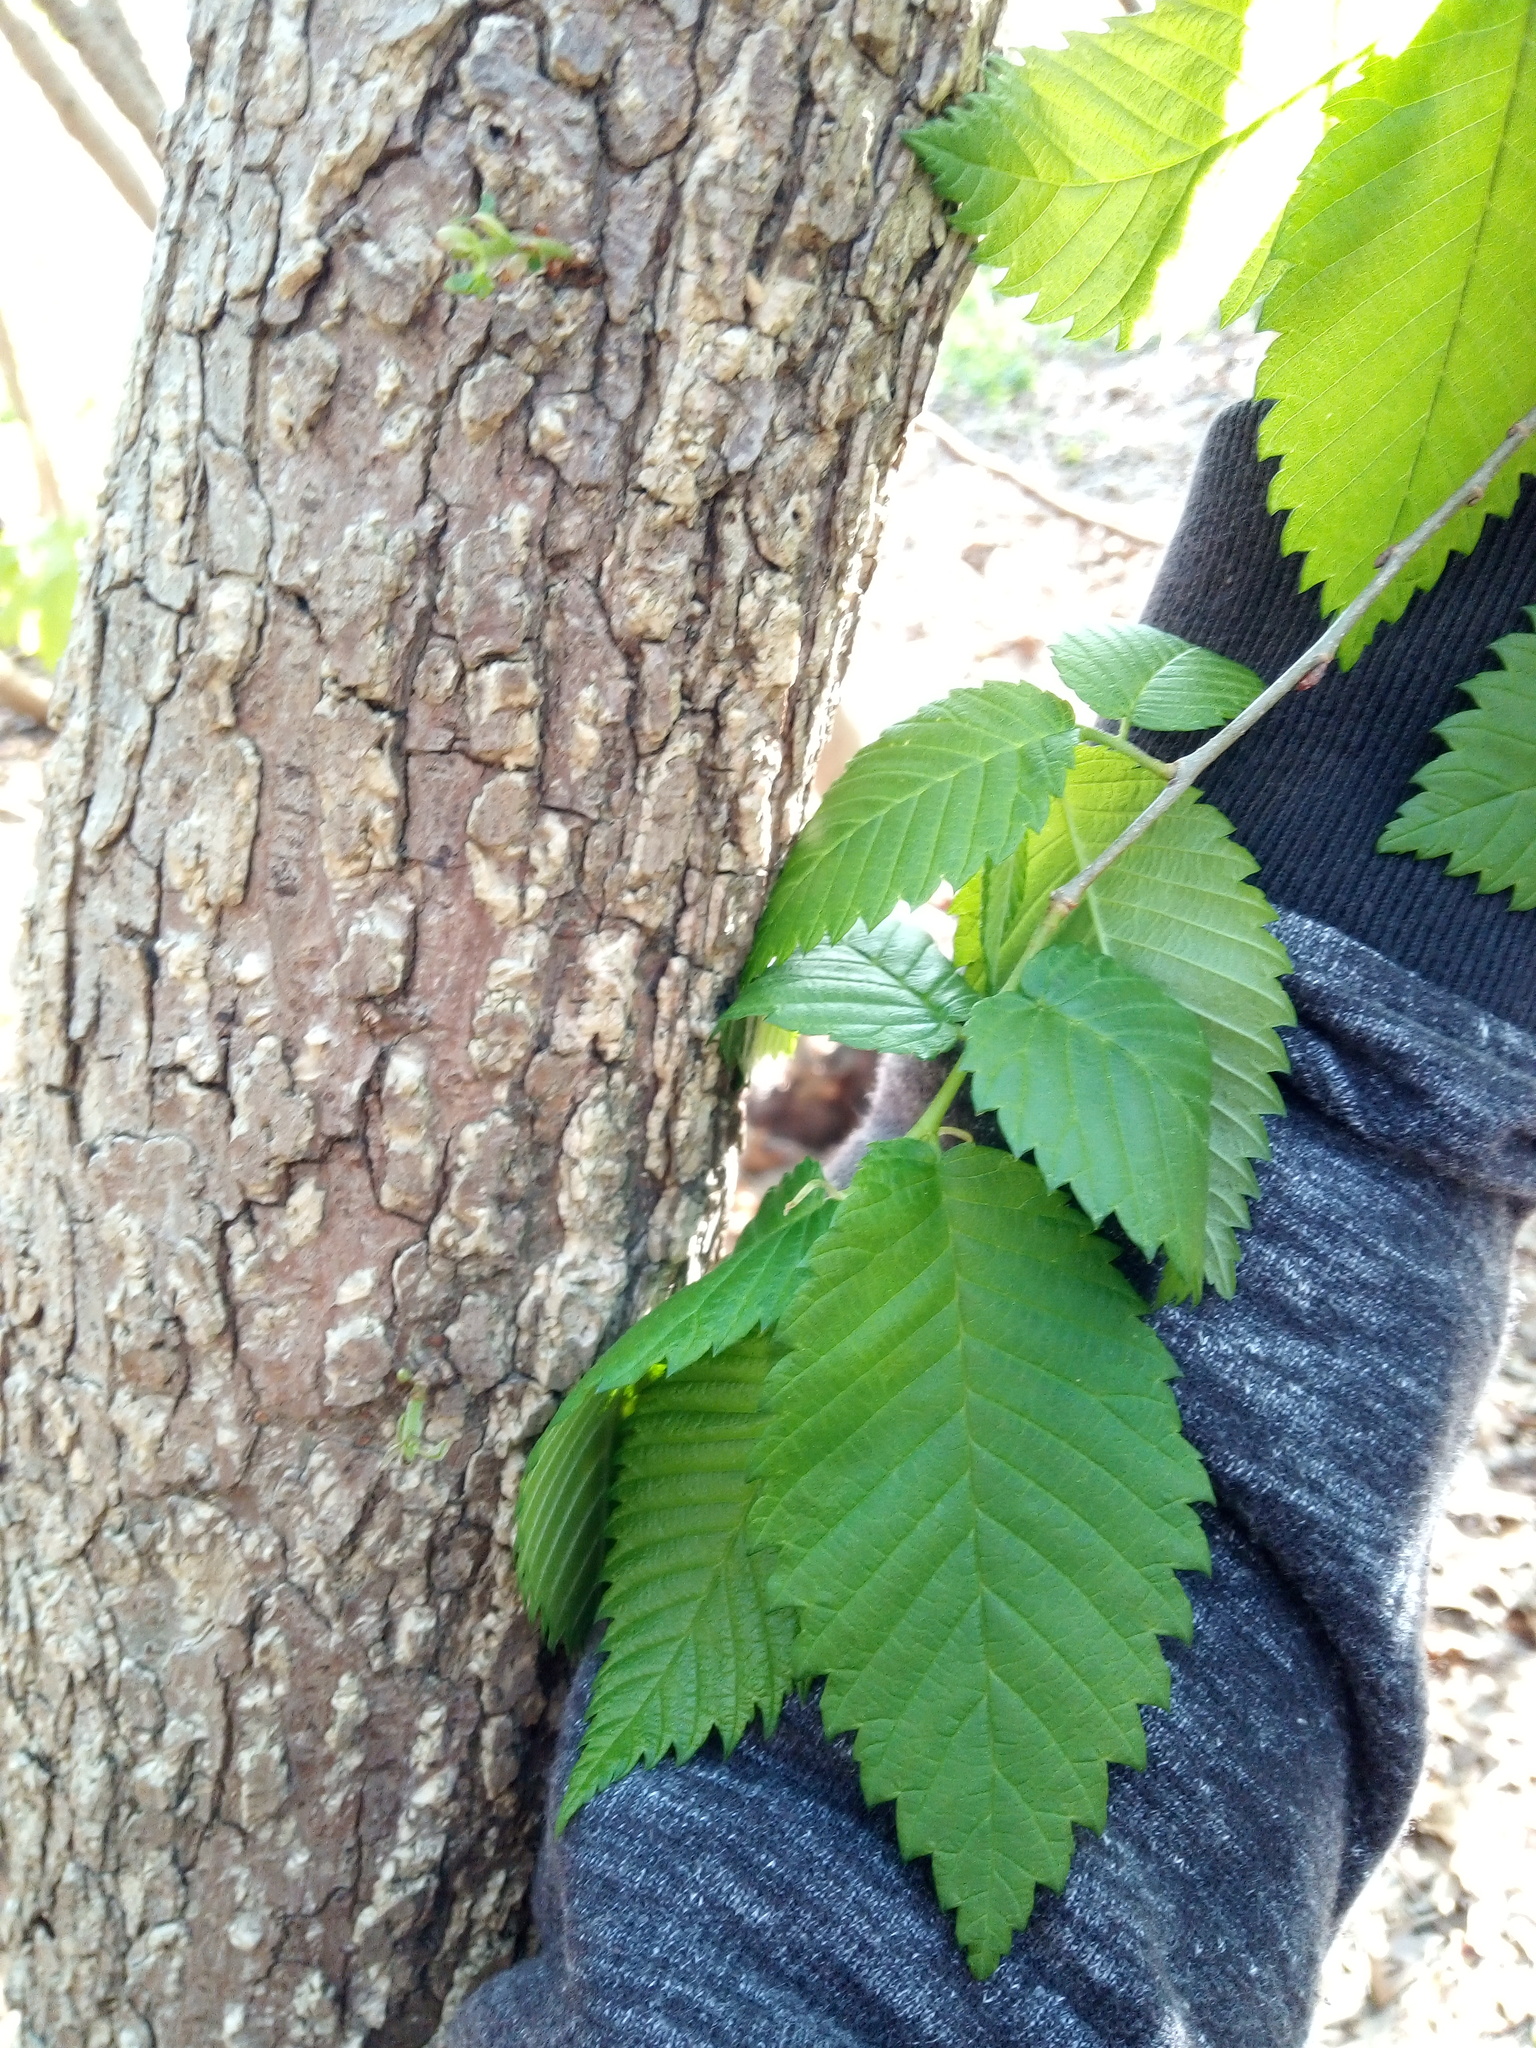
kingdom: Plantae
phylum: Tracheophyta
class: Magnoliopsida
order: Rosales
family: Ulmaceae
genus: Ulmus
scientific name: Ulmus americana
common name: American elm
